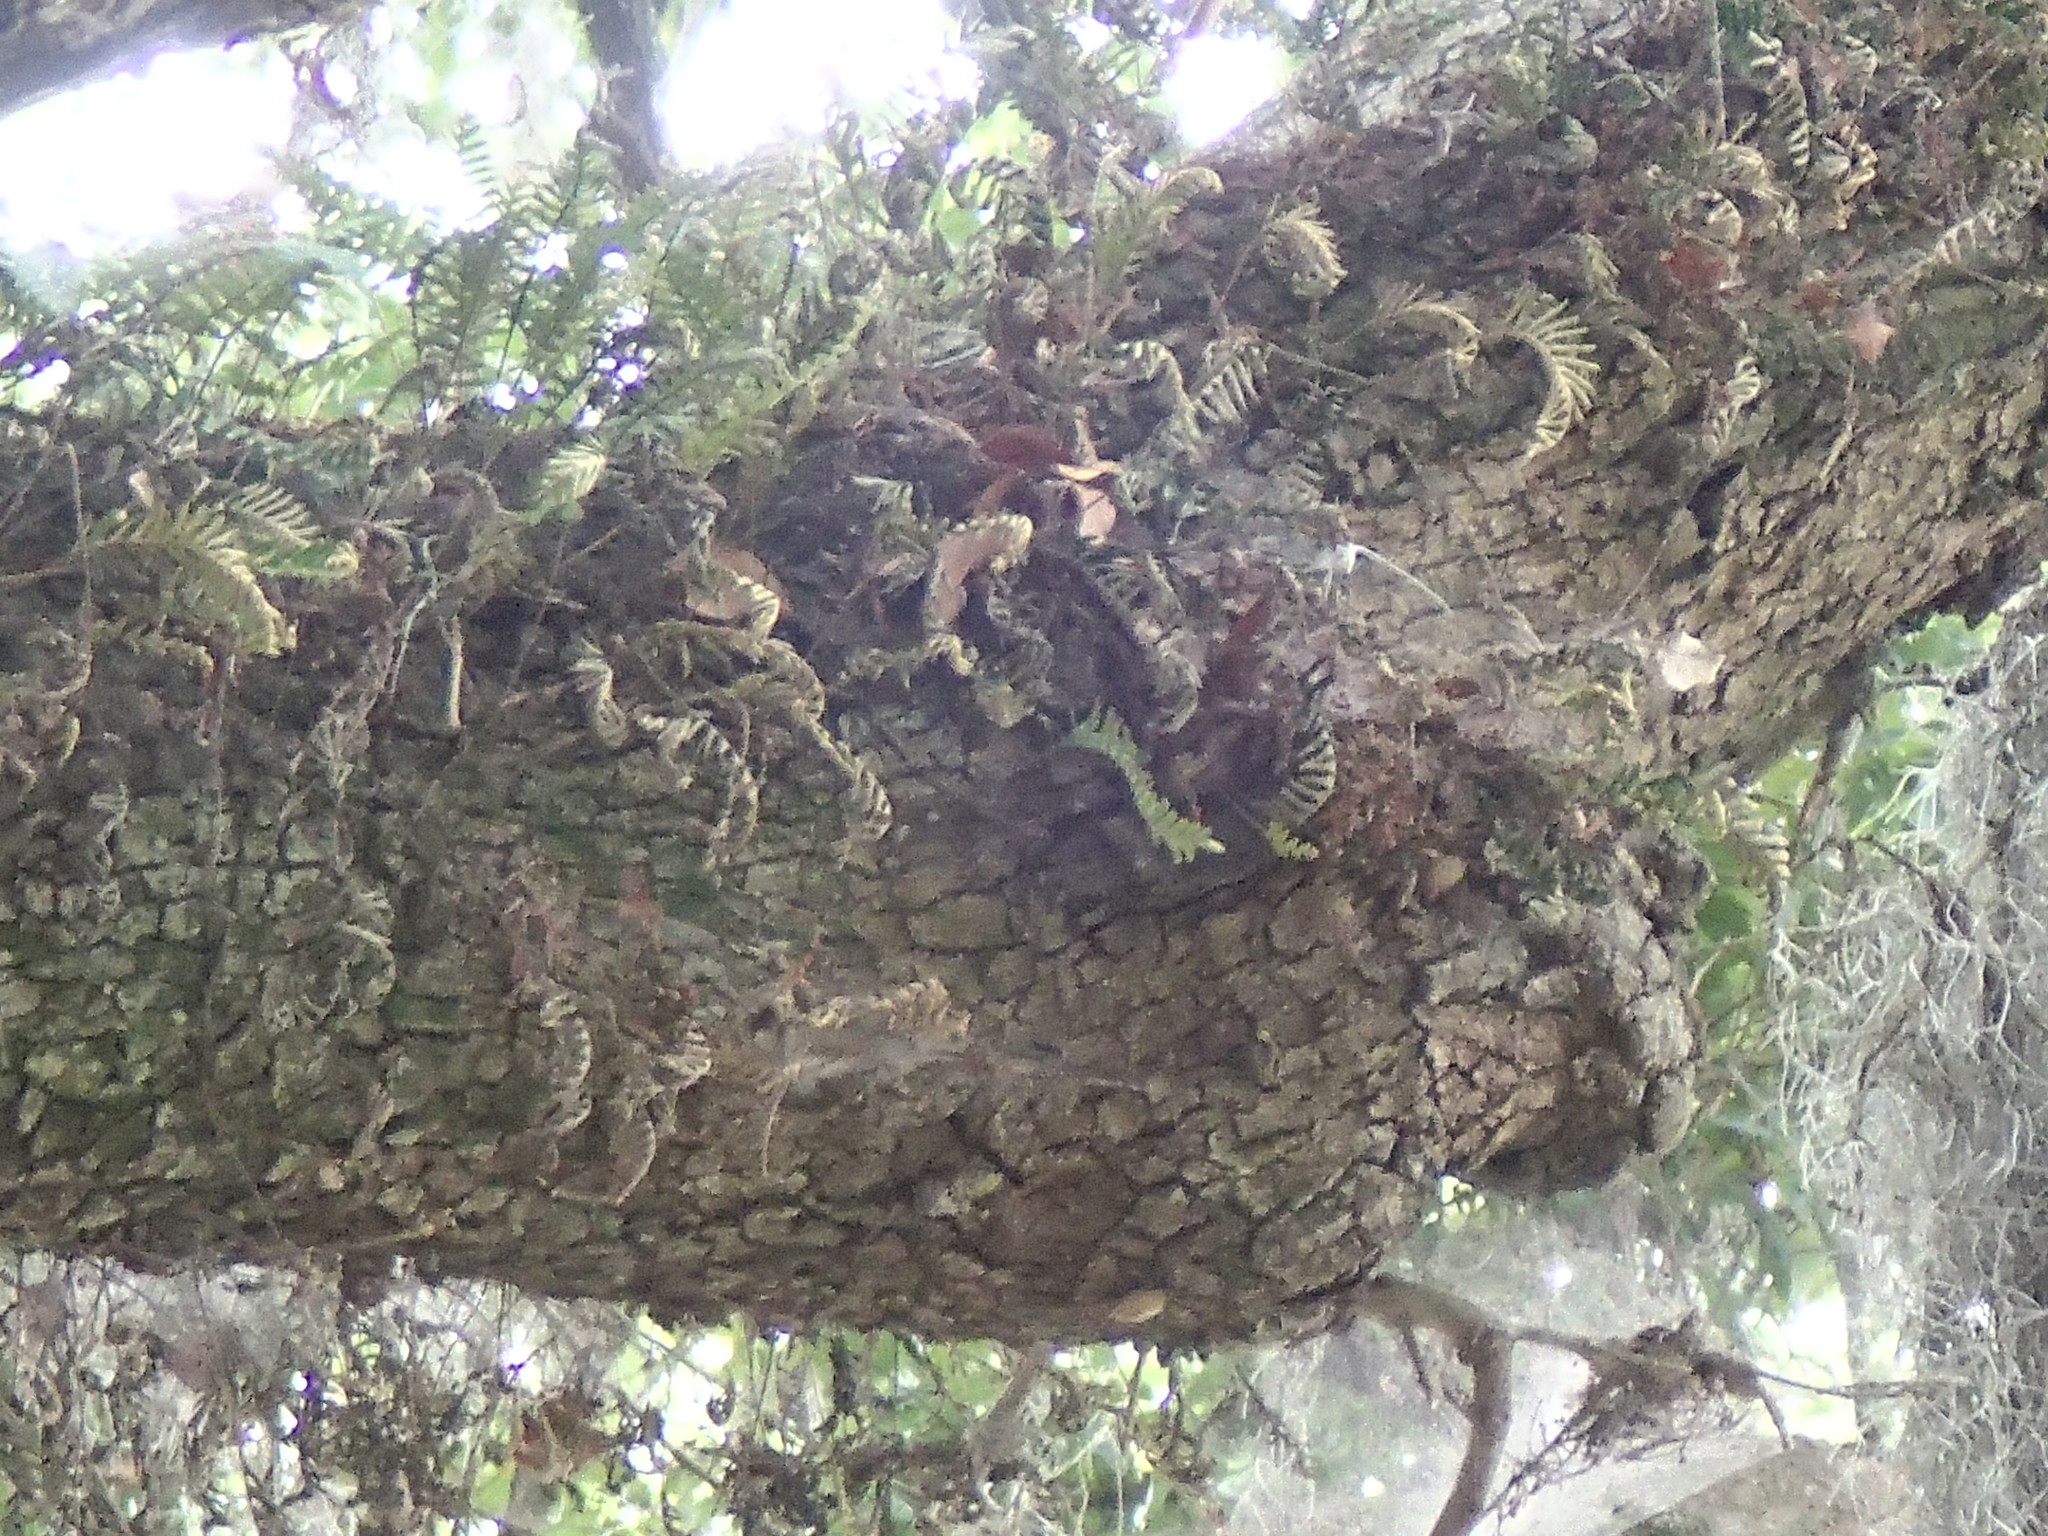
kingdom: Plantae
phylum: Tracheophyta
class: Polypodiopsida
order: Polypodiales
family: Polypodiaceae
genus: Pleopeltis
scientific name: Pleopeltis michauxiana
